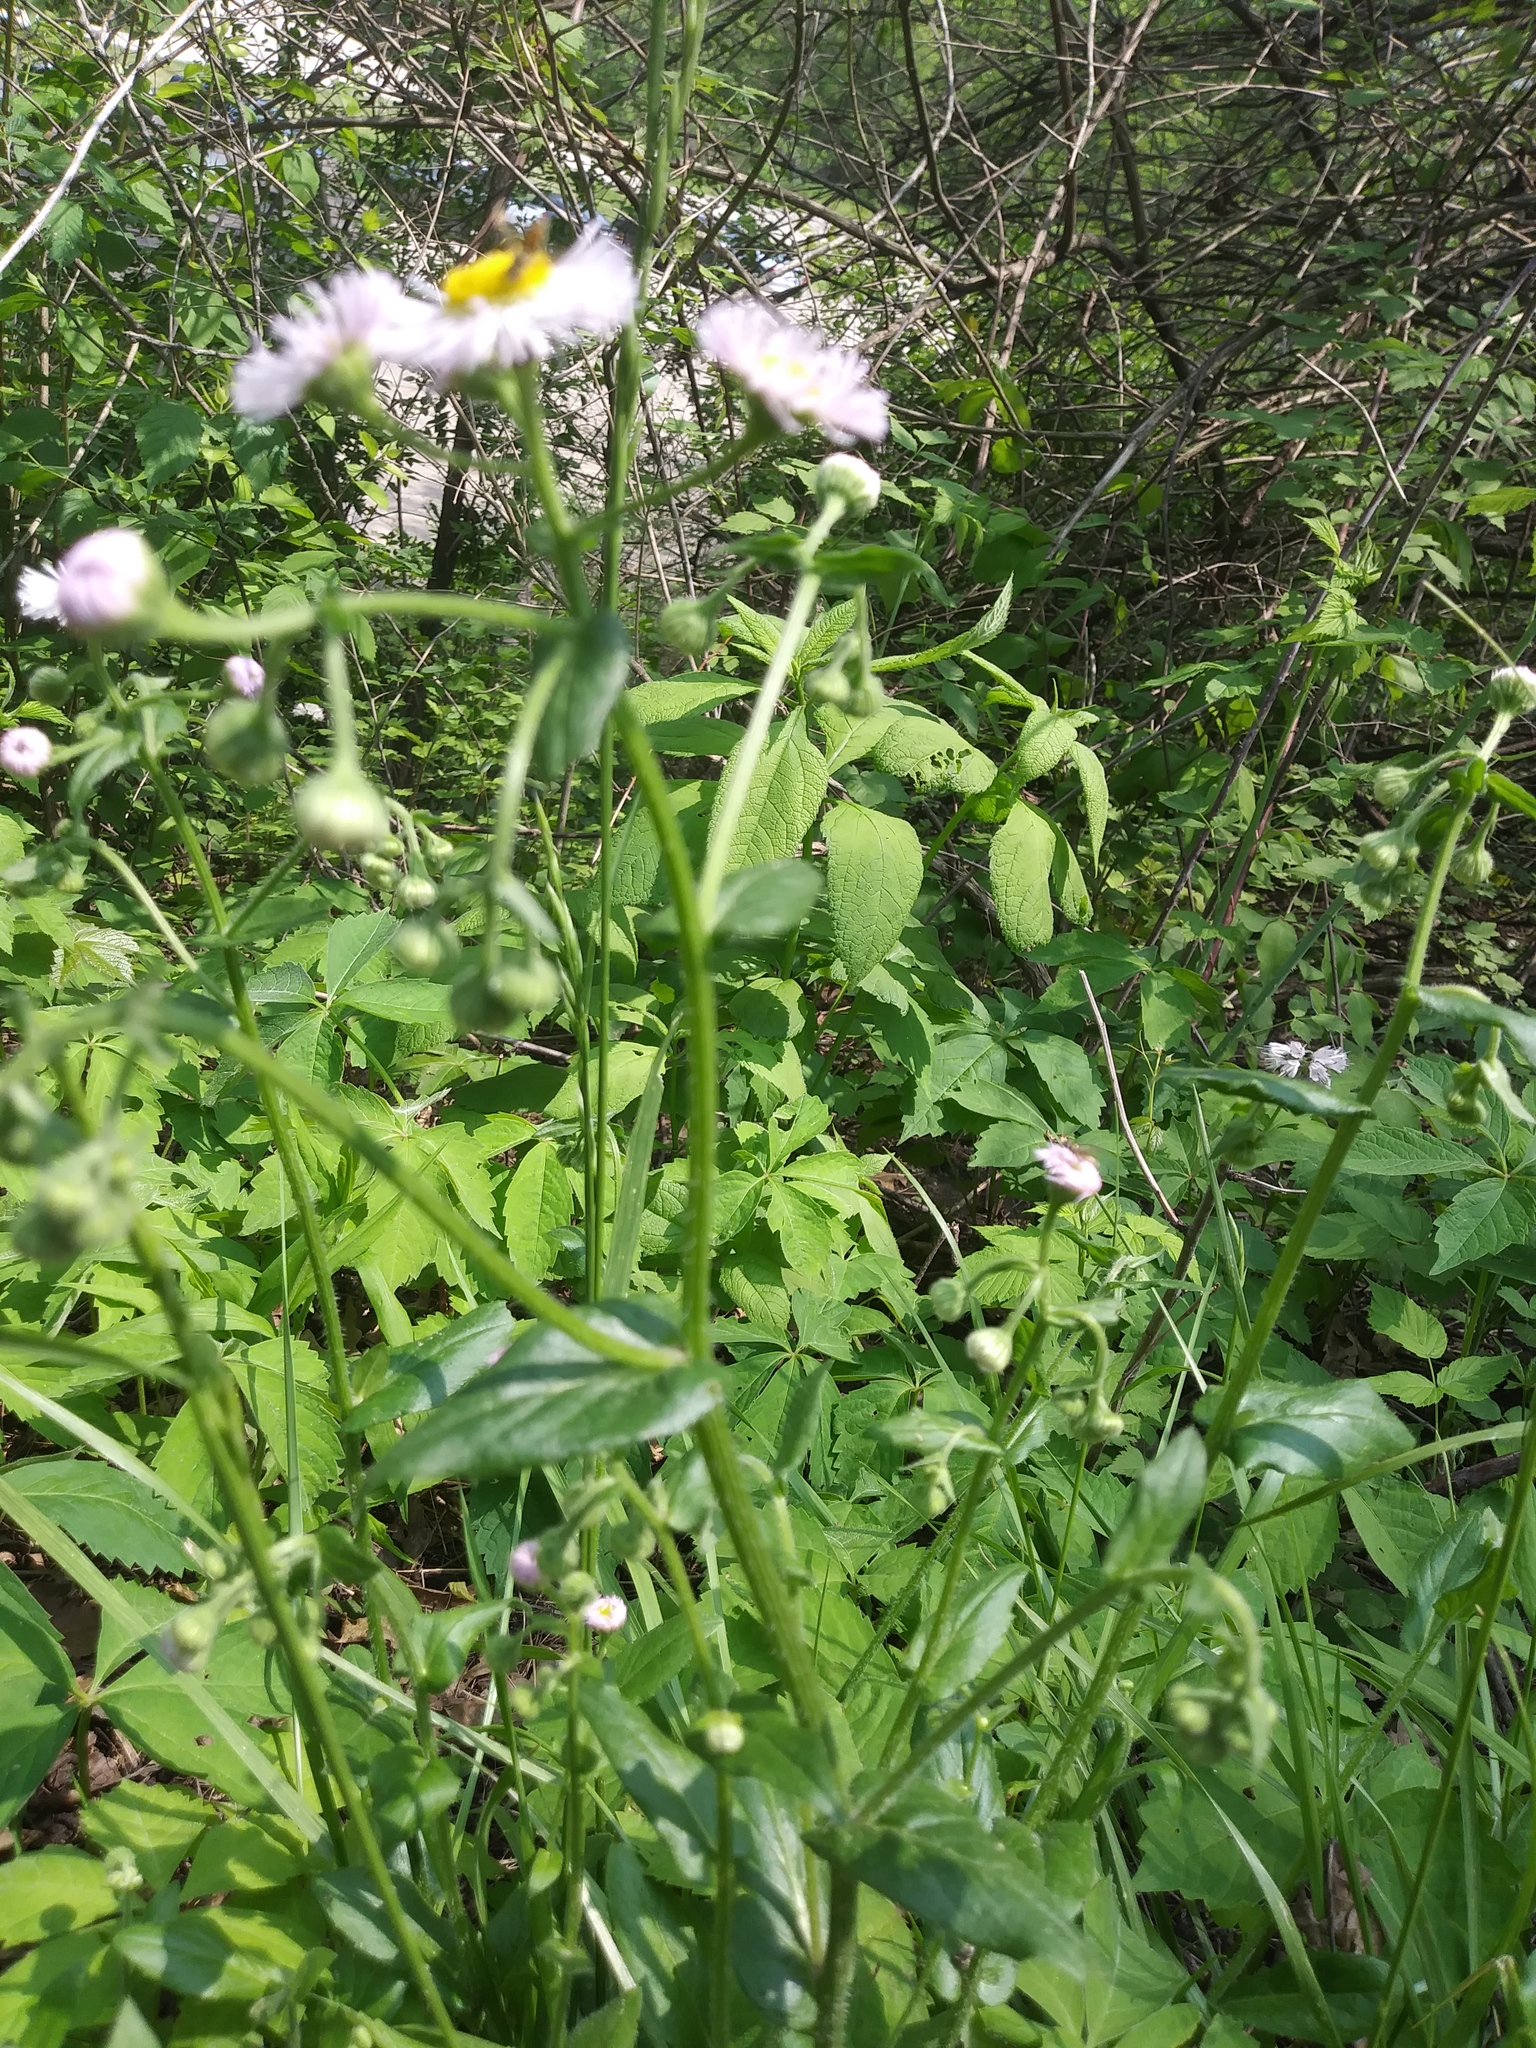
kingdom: Plantae
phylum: Tracheophyta
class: Magnoliopsida
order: Asterales
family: Asteraceae
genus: Erigeron
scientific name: Erigeron philadelphicus
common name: Robin's-plantain
